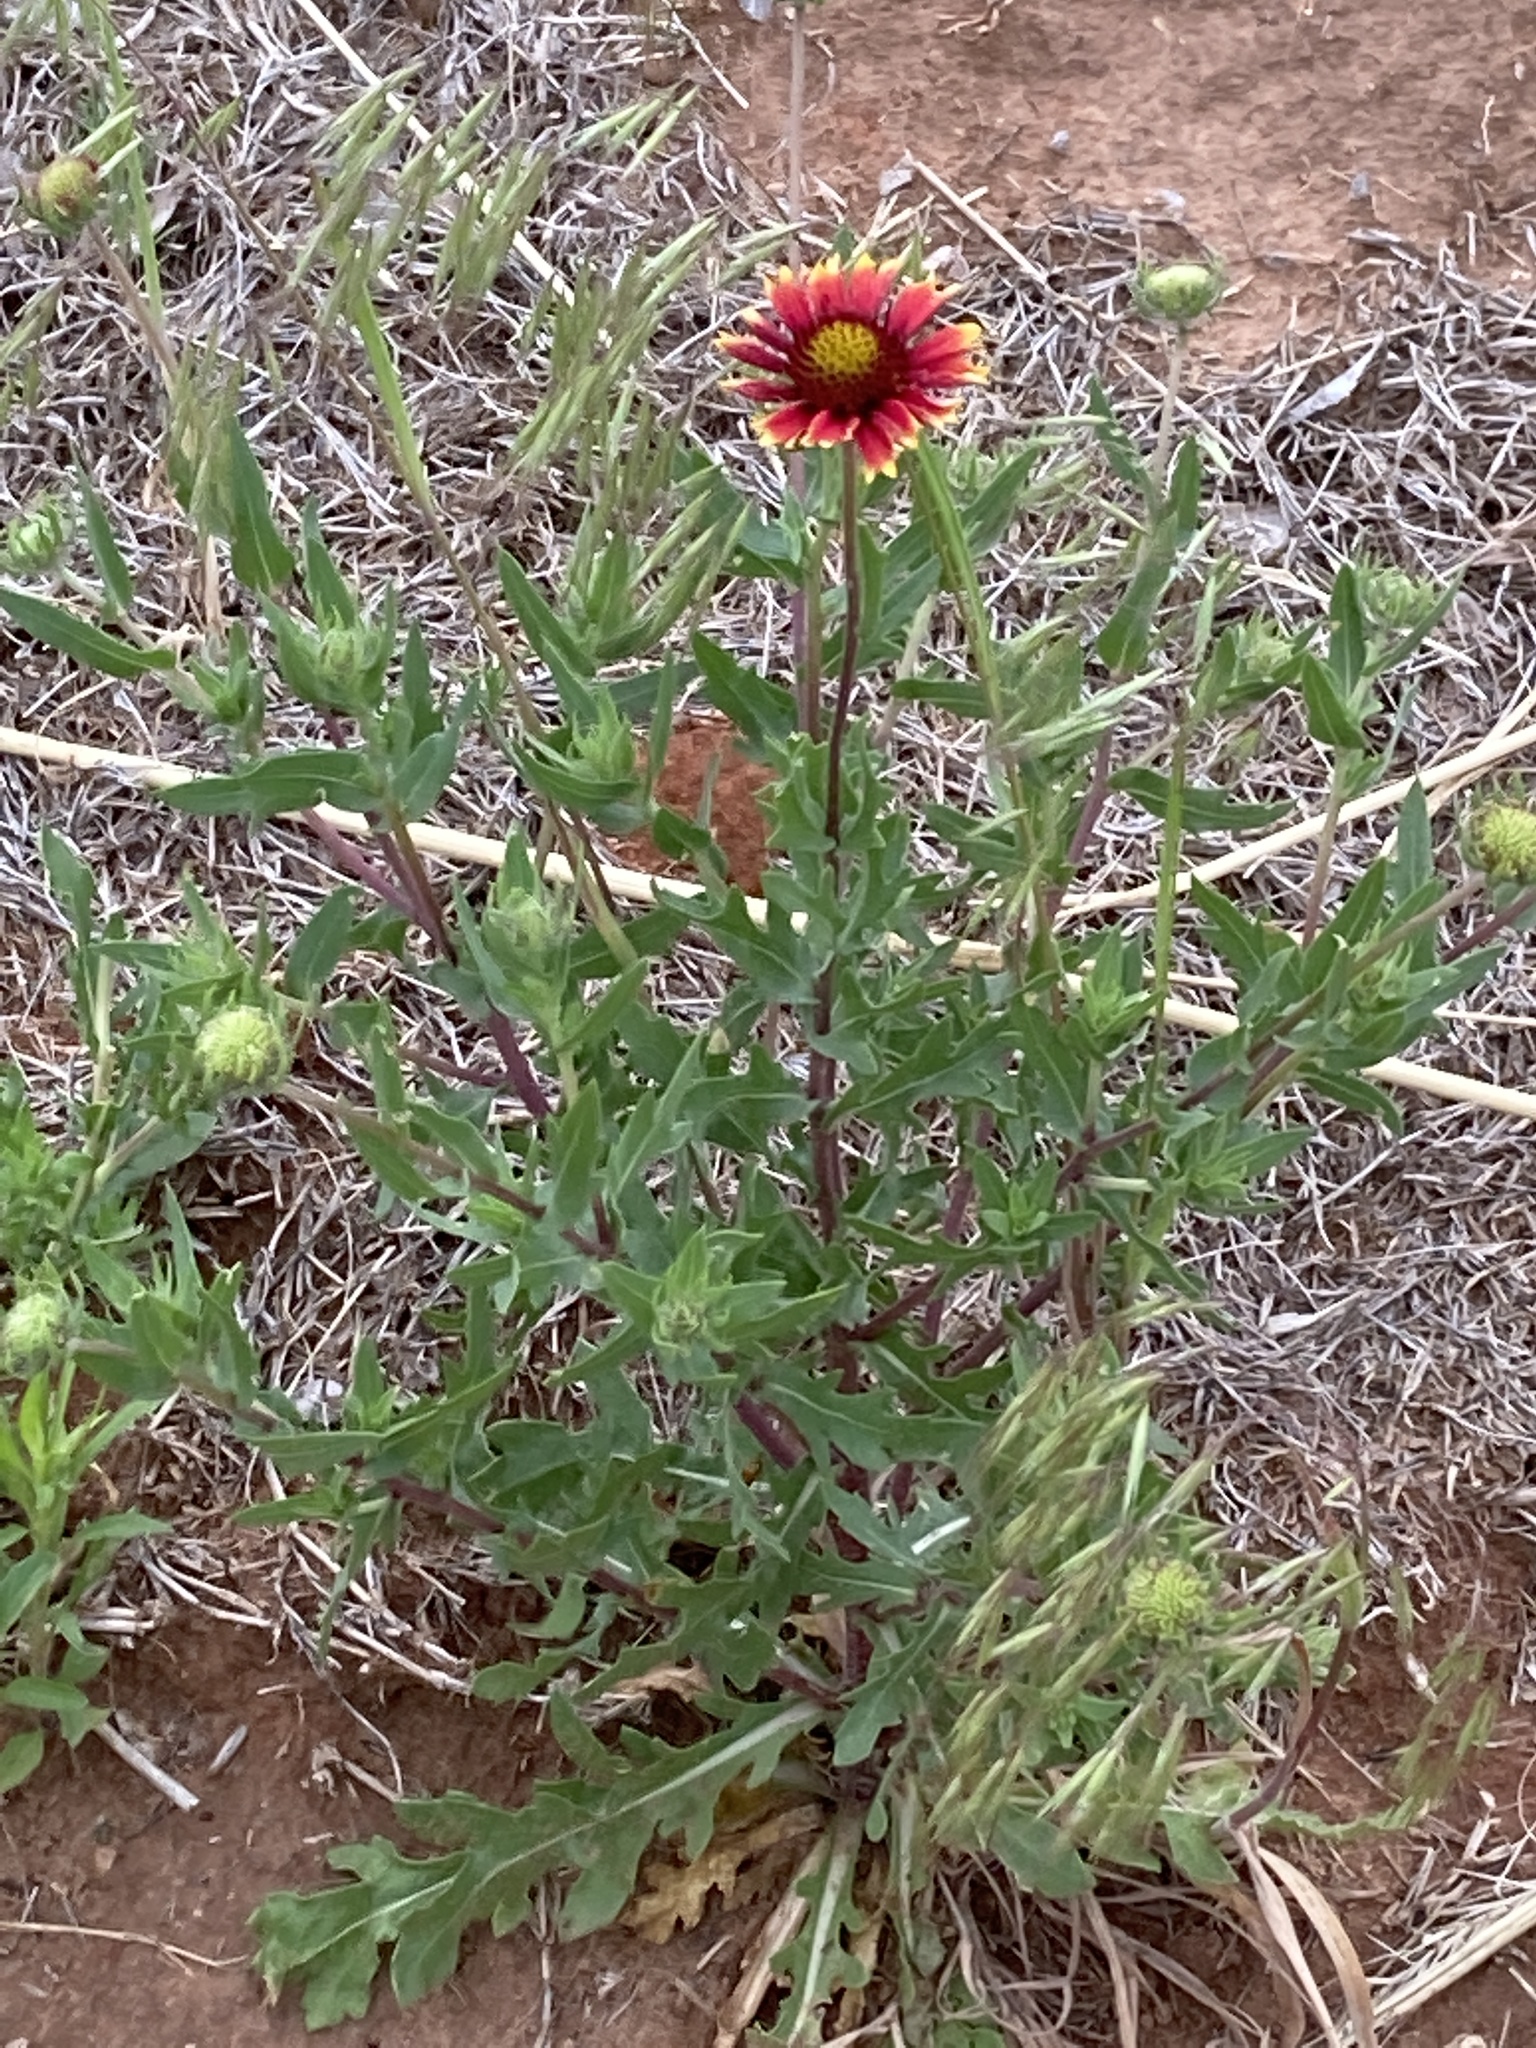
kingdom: Plantae
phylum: Tracheophyta
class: Magnoliopsida
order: Asterales
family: Asteraceae
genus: Gaillardia
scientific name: Gaillardia pulchella
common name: Firewheel
